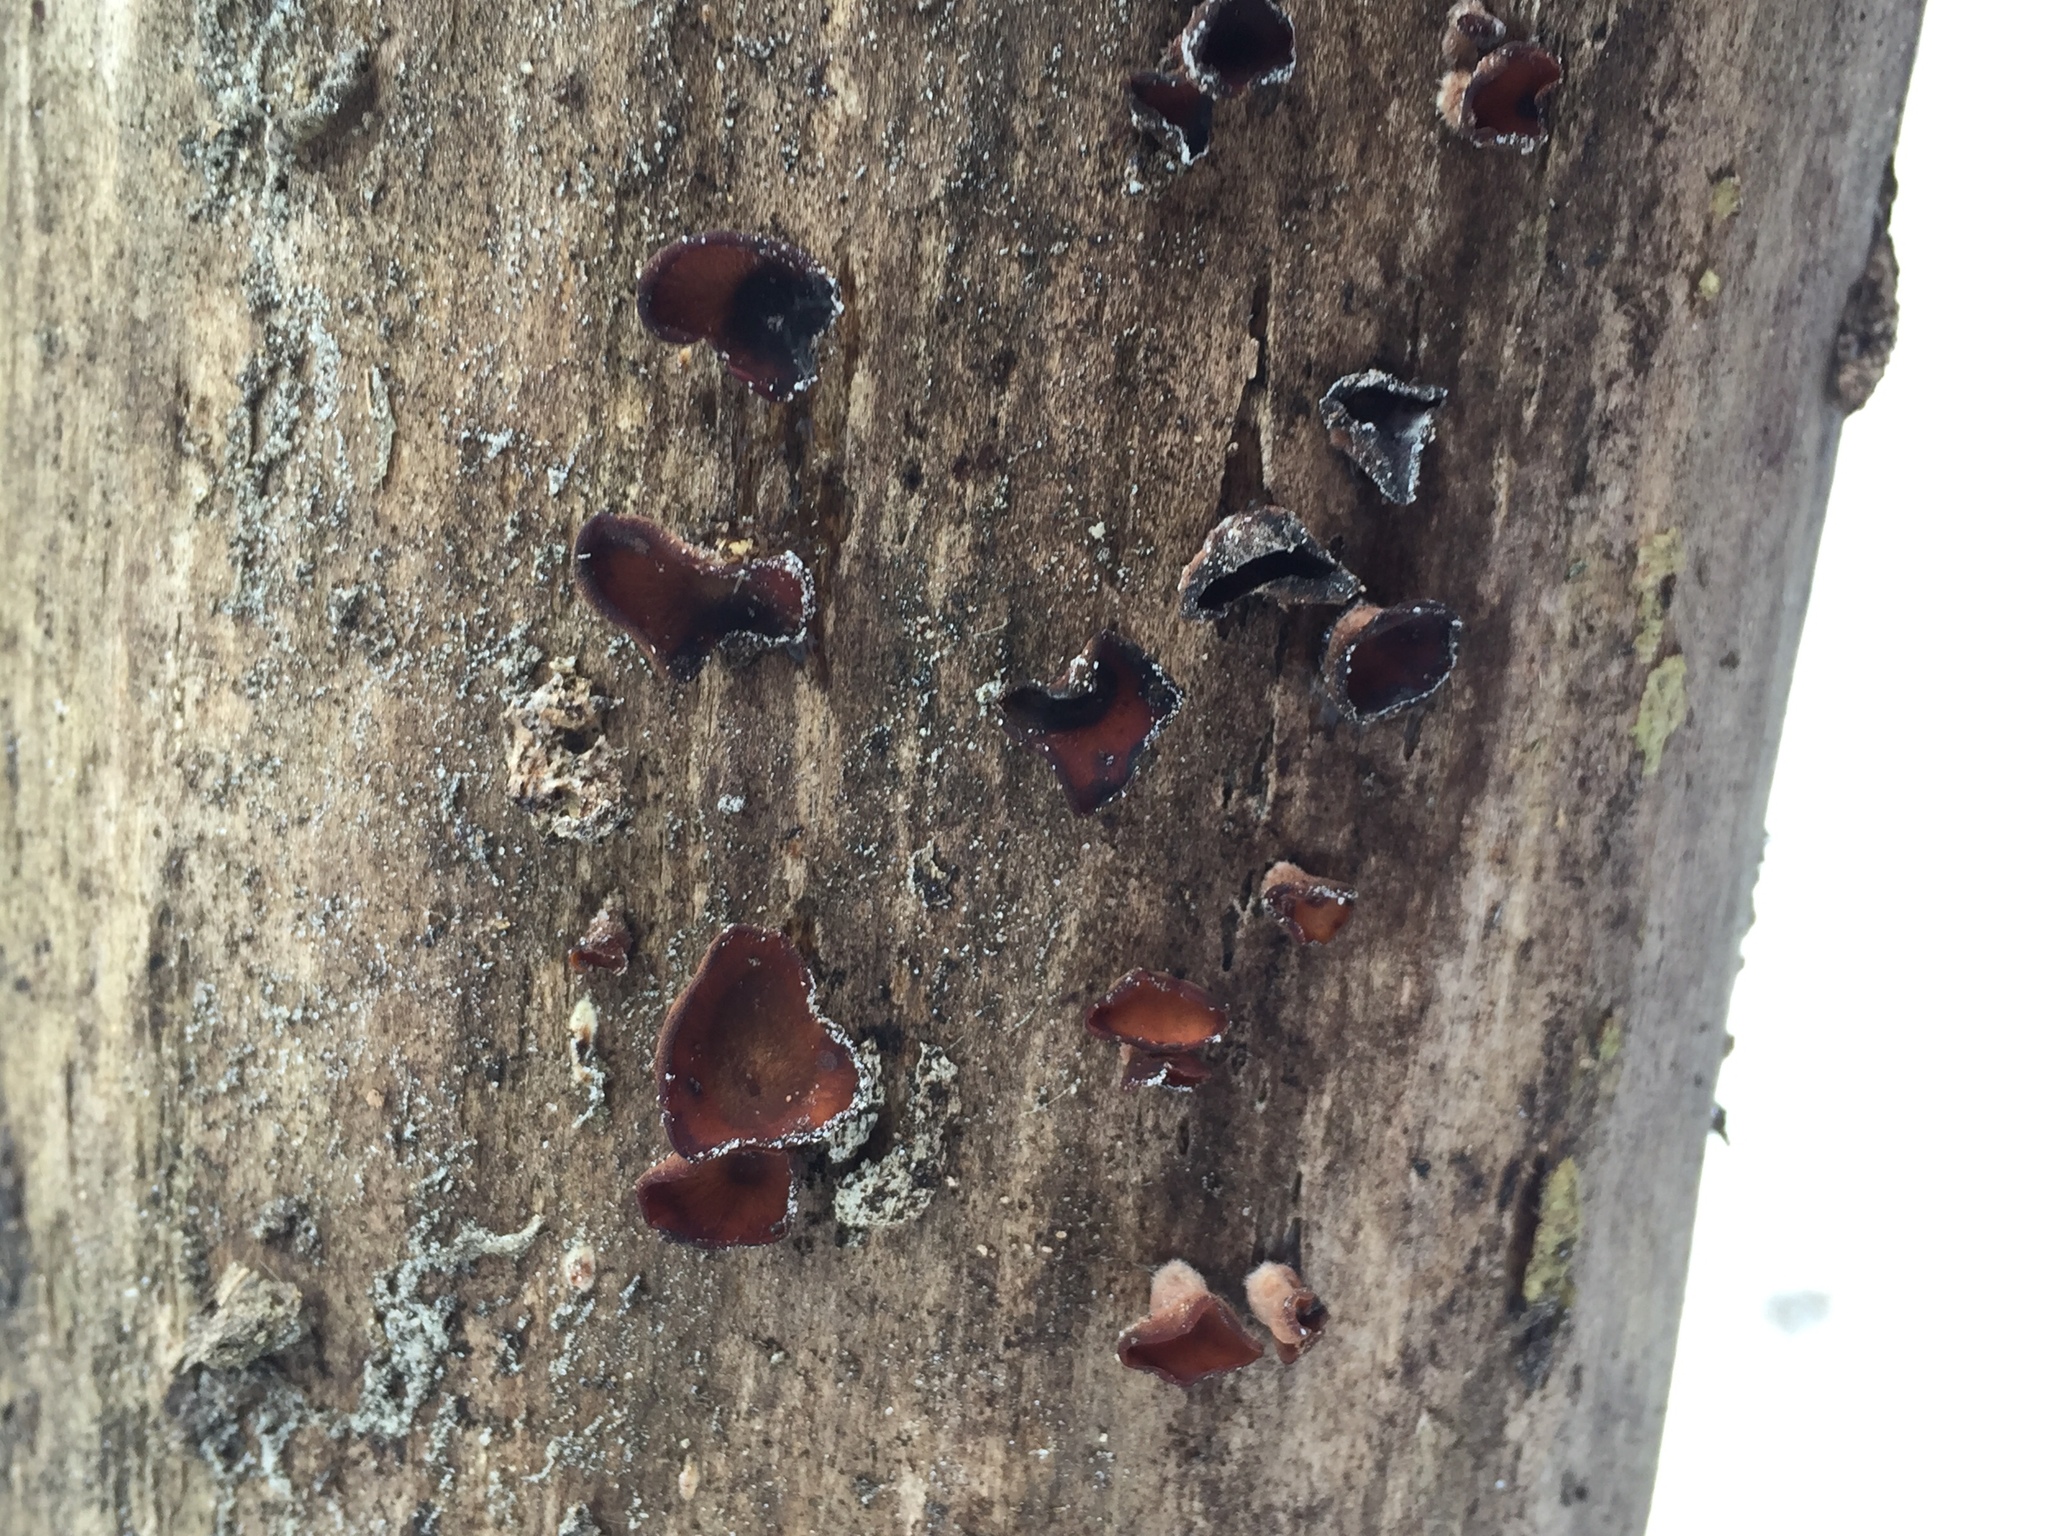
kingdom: Fungi
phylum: Basidiomycota
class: Dacrymycetes
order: Dacrymycetales
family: Dacrymycetaceae
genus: Dacryopinax
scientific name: Dacryopinax elegans
